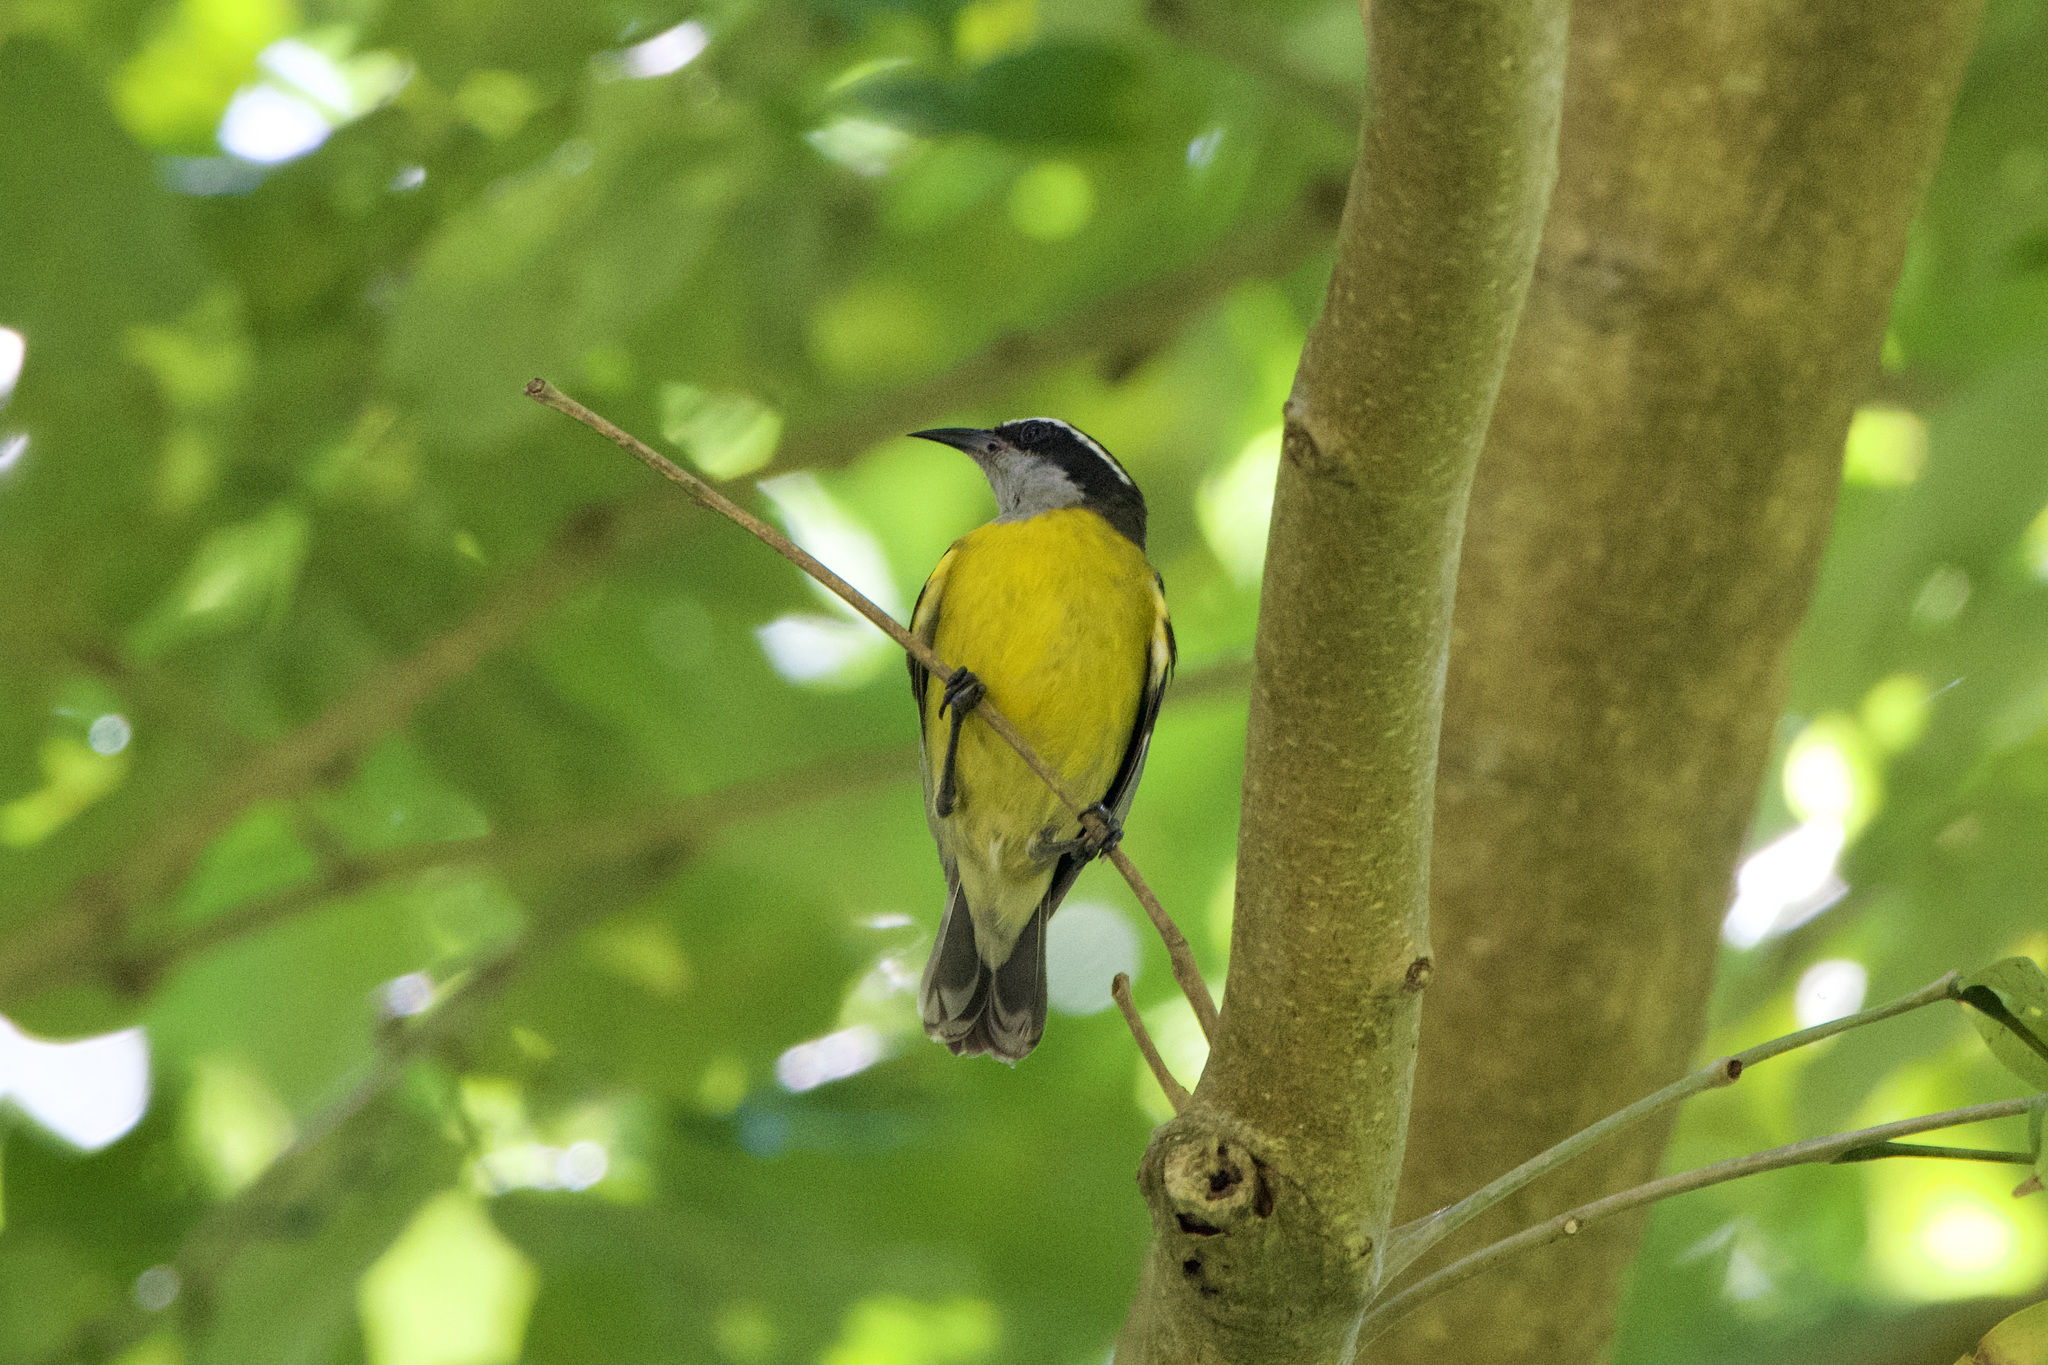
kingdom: Animalia
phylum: Chordata
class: Aves
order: Passeriformes
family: Thraupidae
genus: Coereba
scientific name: Coereba flaveola
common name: Bananaquit
